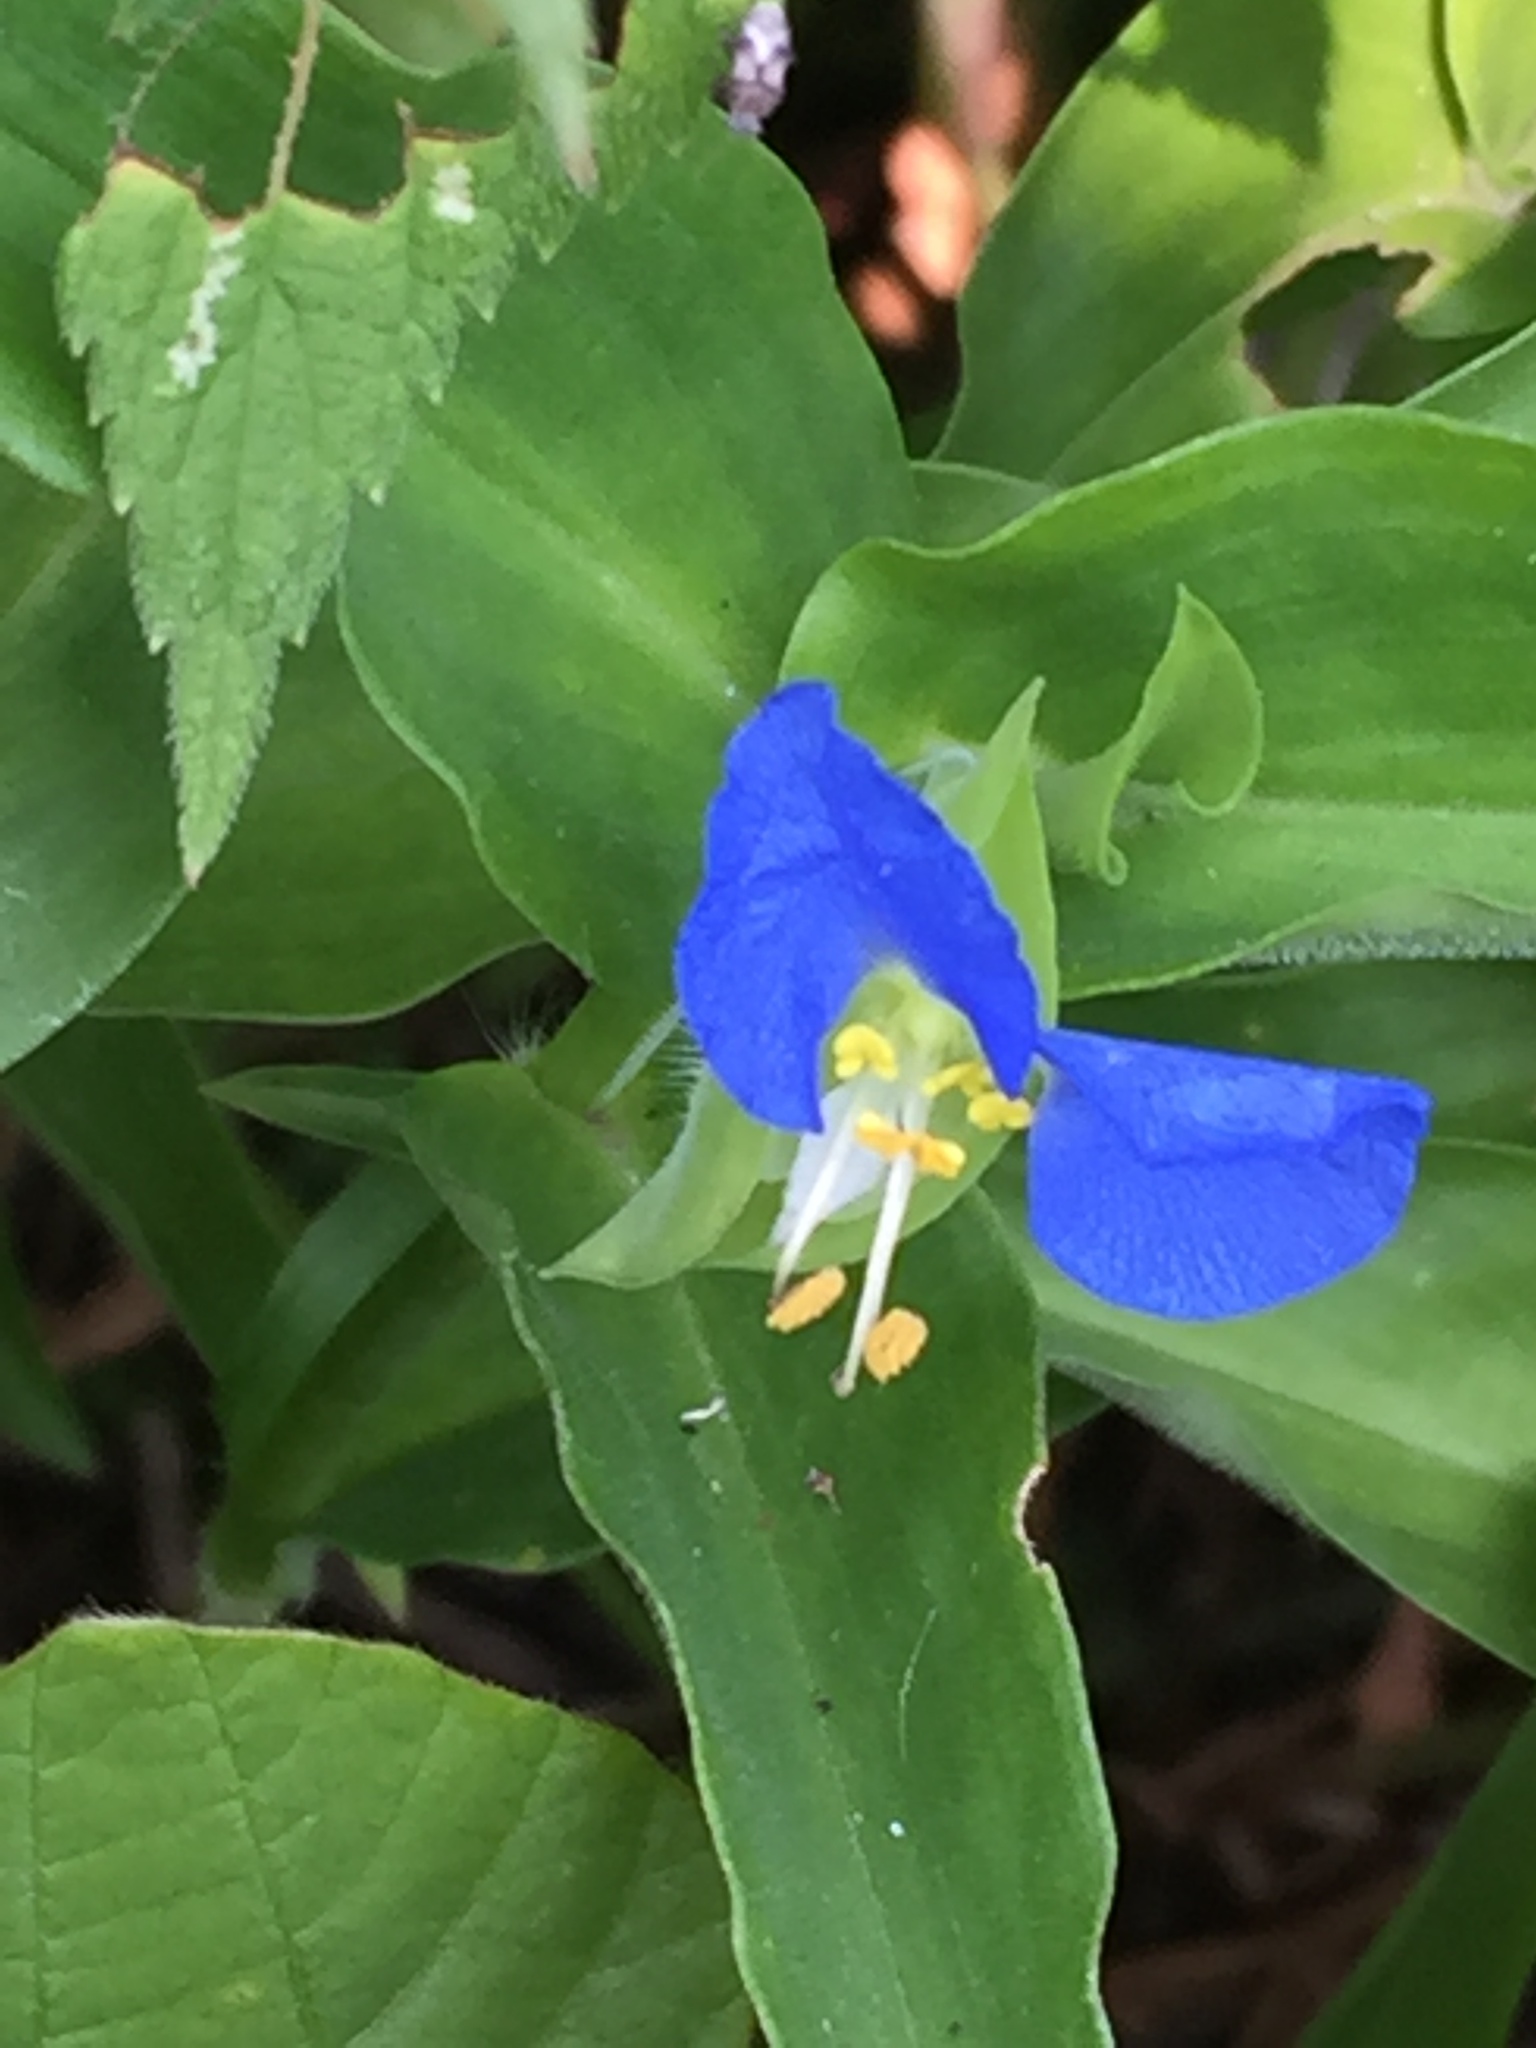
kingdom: Plantae
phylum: Tracheophyta
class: Liliopsida
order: Commelinales
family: Commelinaceae
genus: Commelina
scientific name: Commelina communis
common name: Asiatic dayflower
